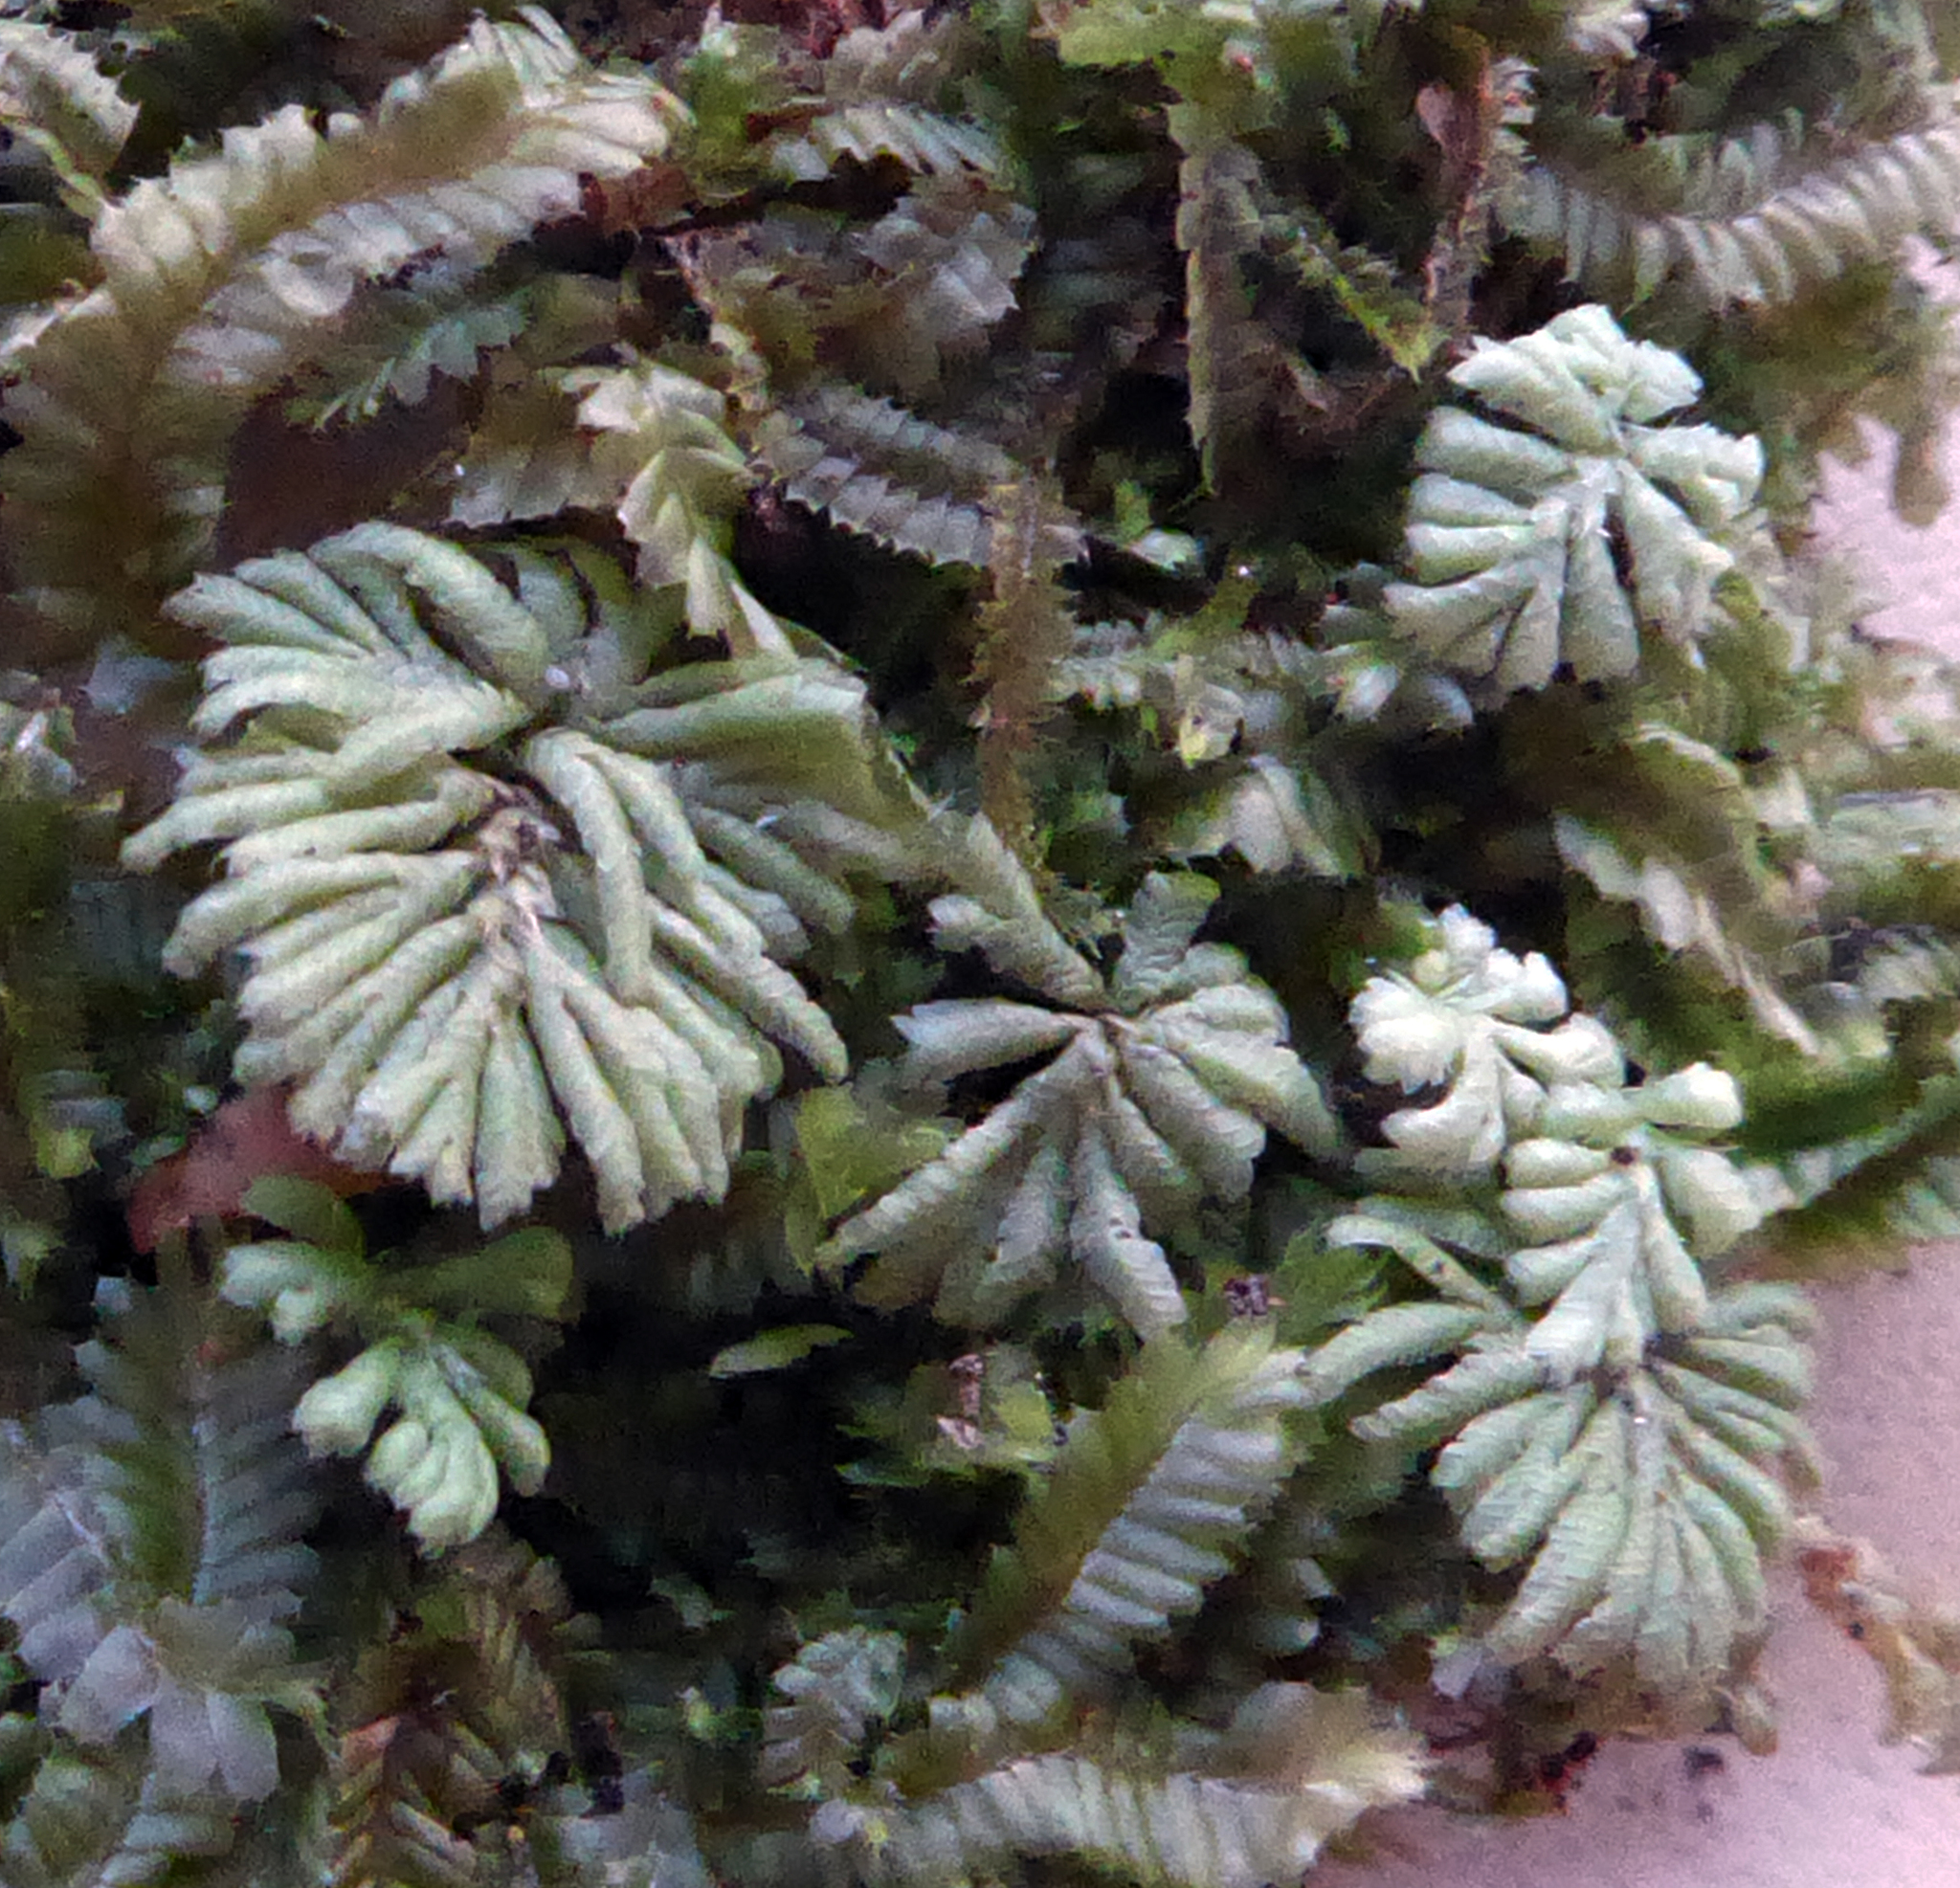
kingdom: Plantae
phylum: Bryophyta
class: Bryopsida
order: Hypopterygiales
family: Hypopterygiaceae
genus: Hypopterygium
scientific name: Hypopterygium didictyon
